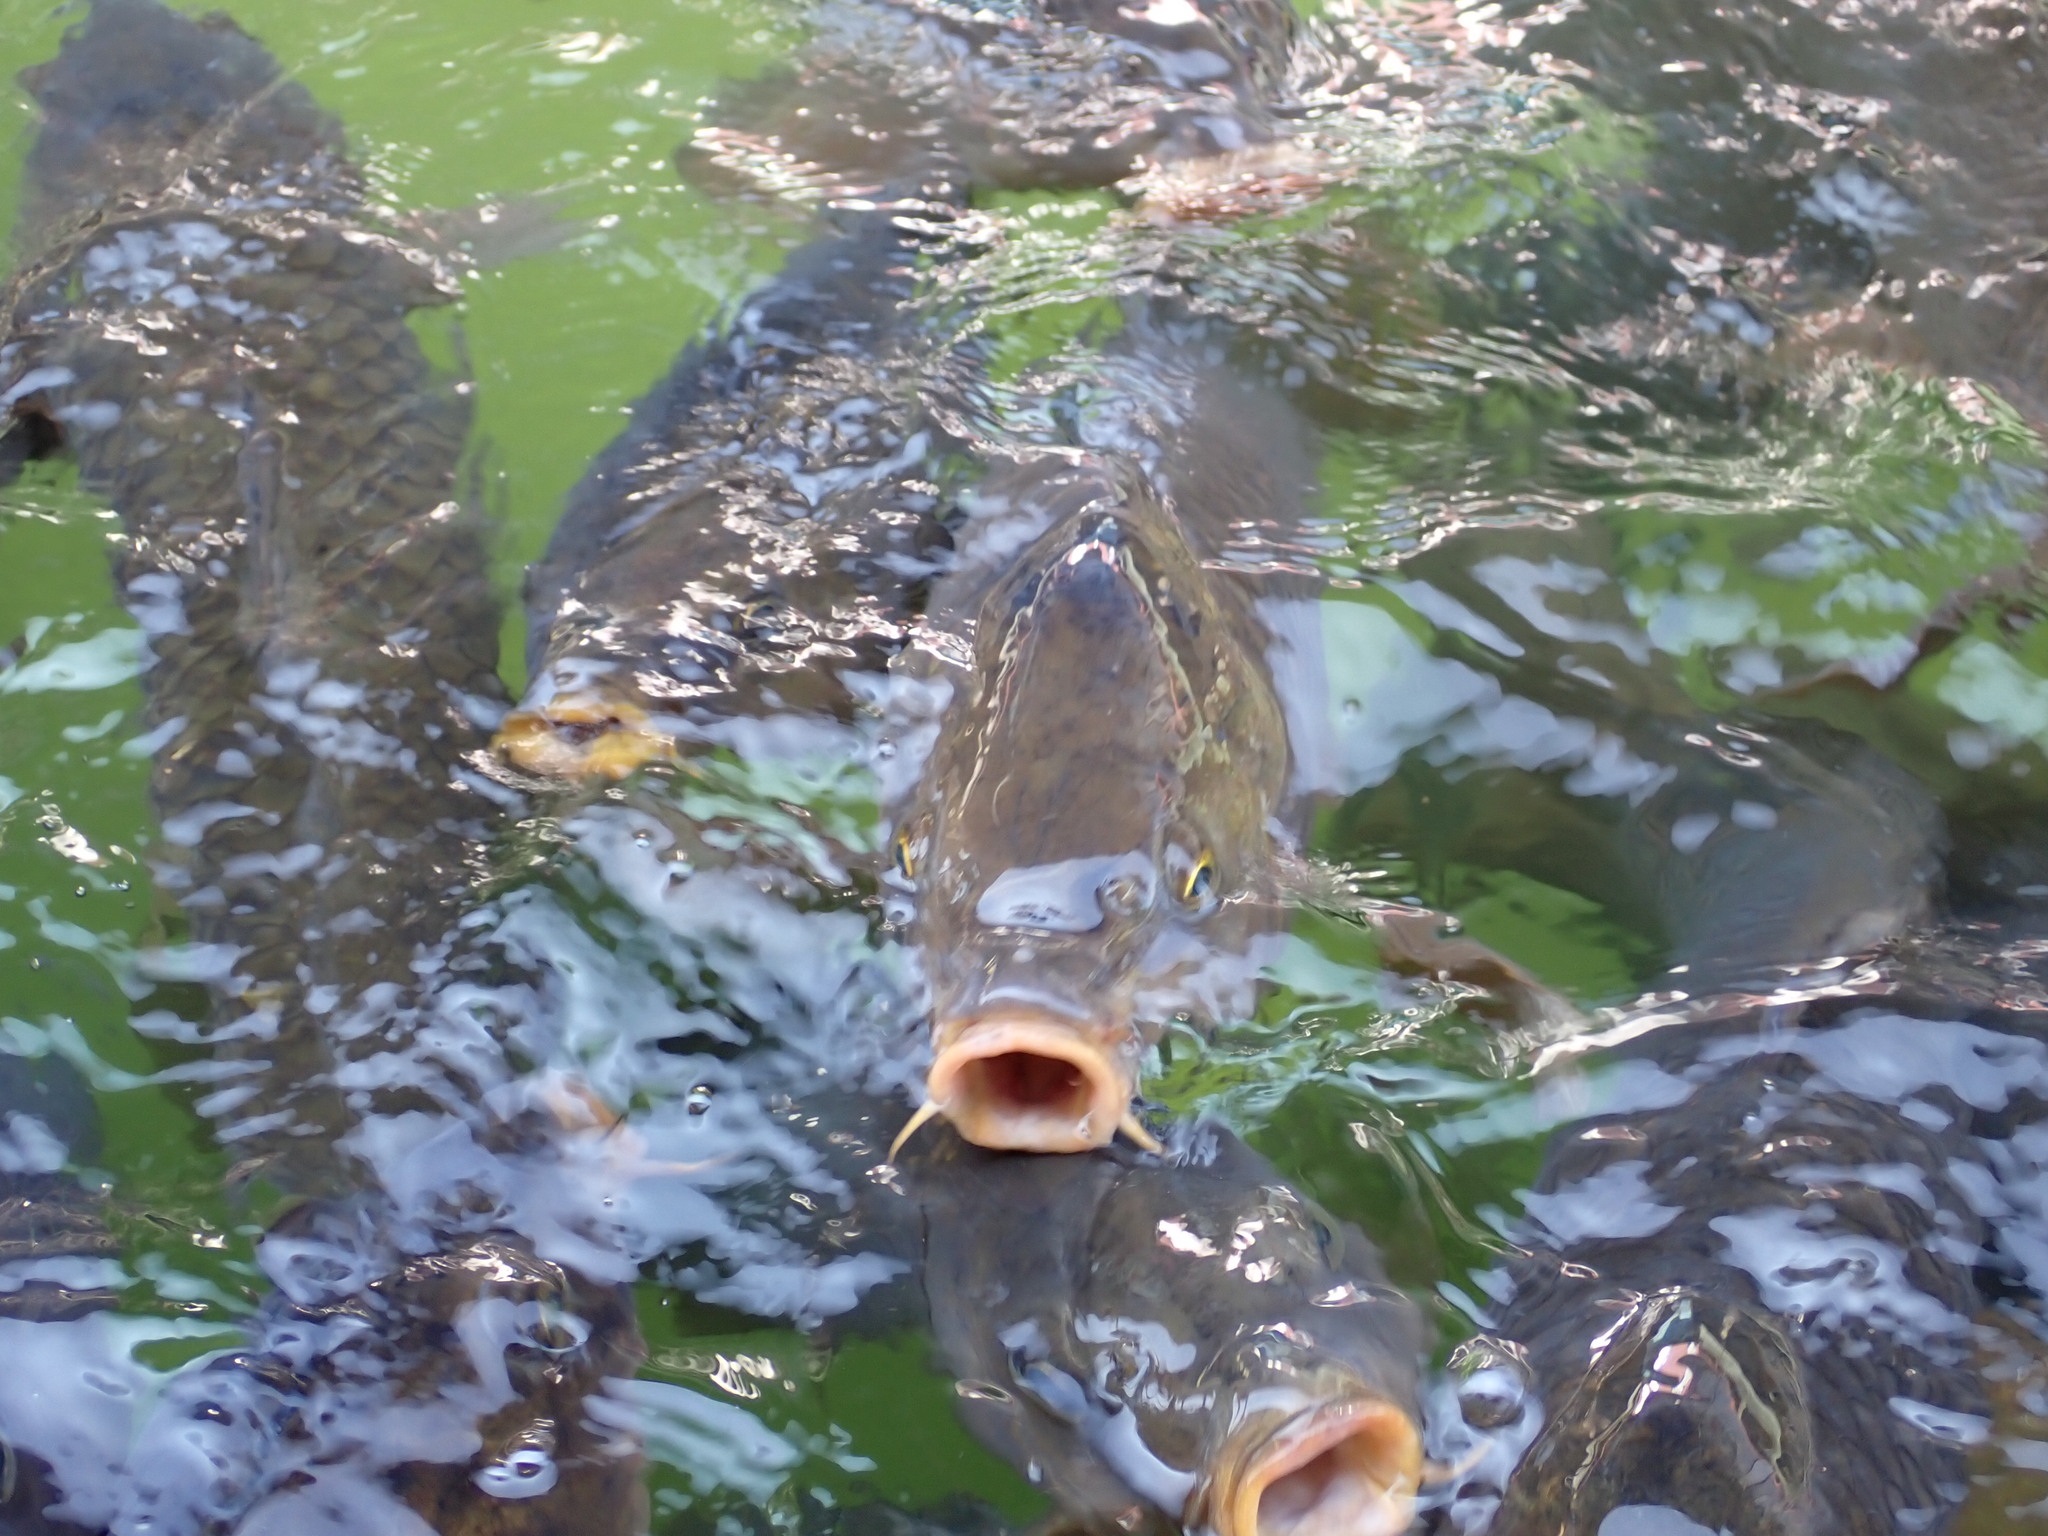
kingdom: Animalia
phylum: Chordata
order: Cypriniformes
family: Cyprinidae
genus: Cyprinus
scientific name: Cyprinus carpio
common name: Common carp
